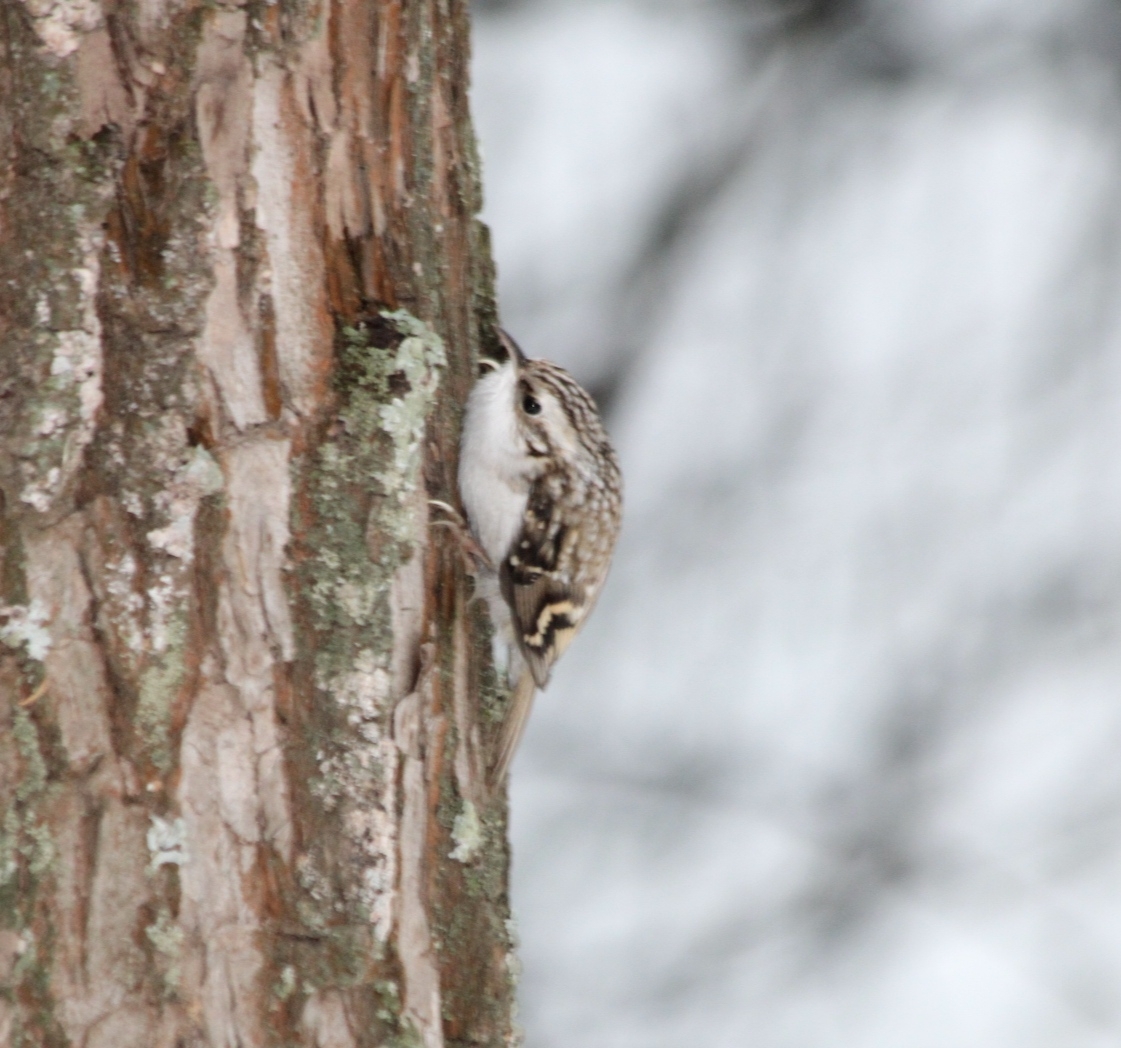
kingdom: Animalia
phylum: Chordata
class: Aves
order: Passeriformes
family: Certhiidae
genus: Certhia
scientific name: Certhia familiaris
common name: Eurasian treecreeper
